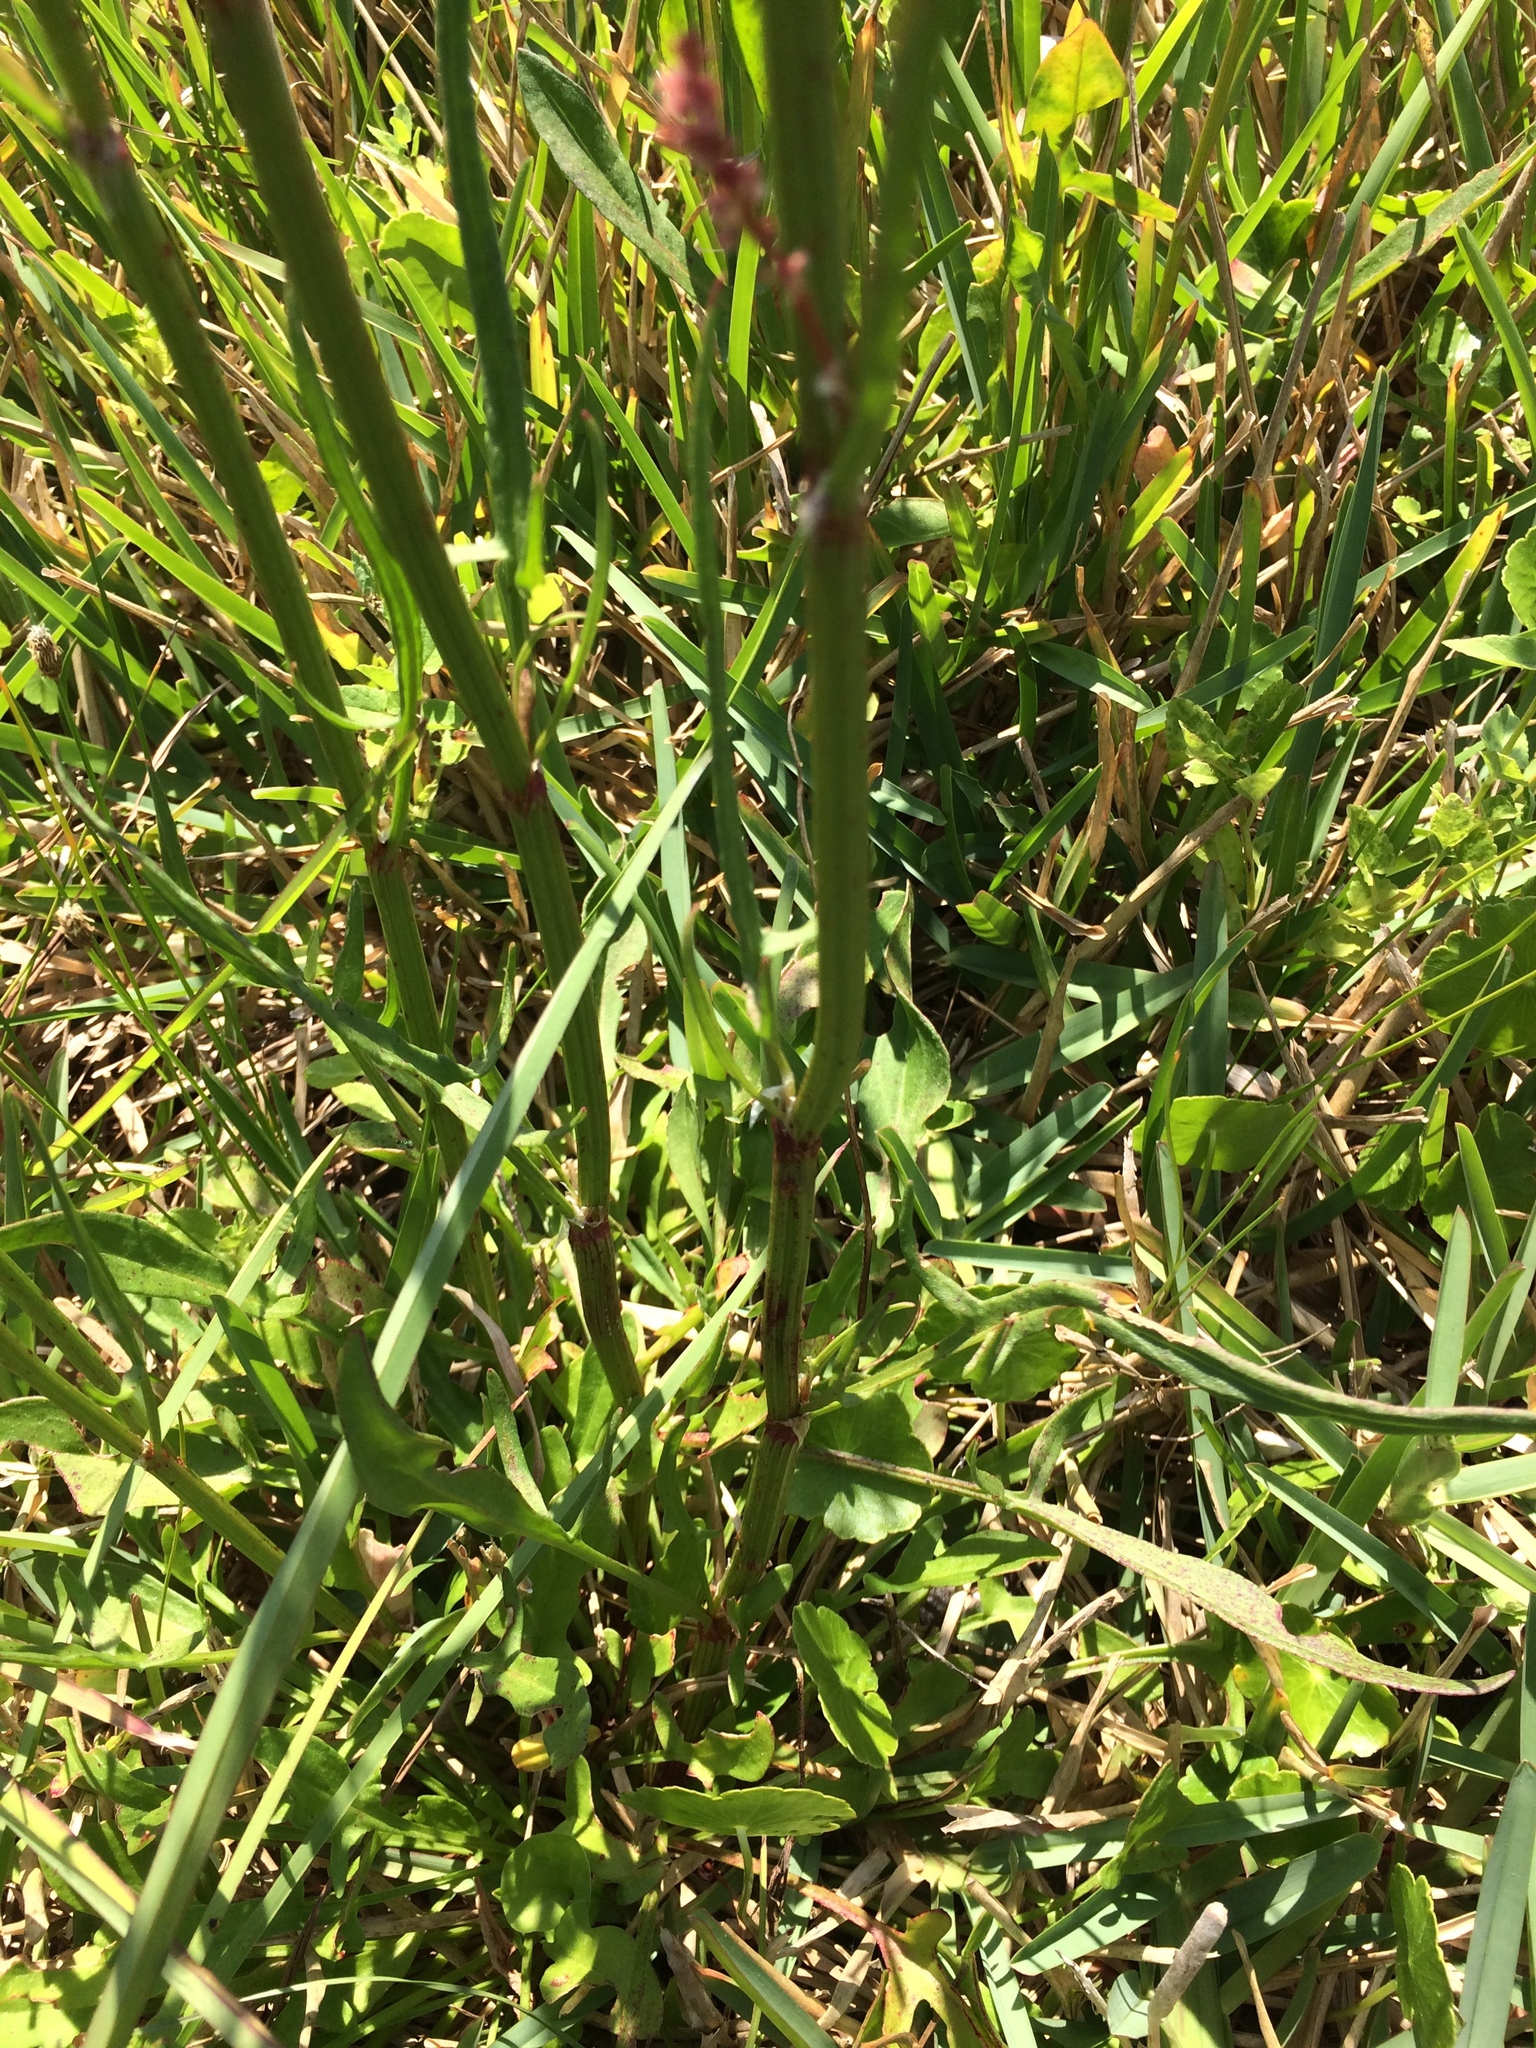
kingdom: Plantae
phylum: Tracheophyta
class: Magnoliopsida
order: Caryophyllales
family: Polygonaceae
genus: Rumex
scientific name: Rumex hastatulus
